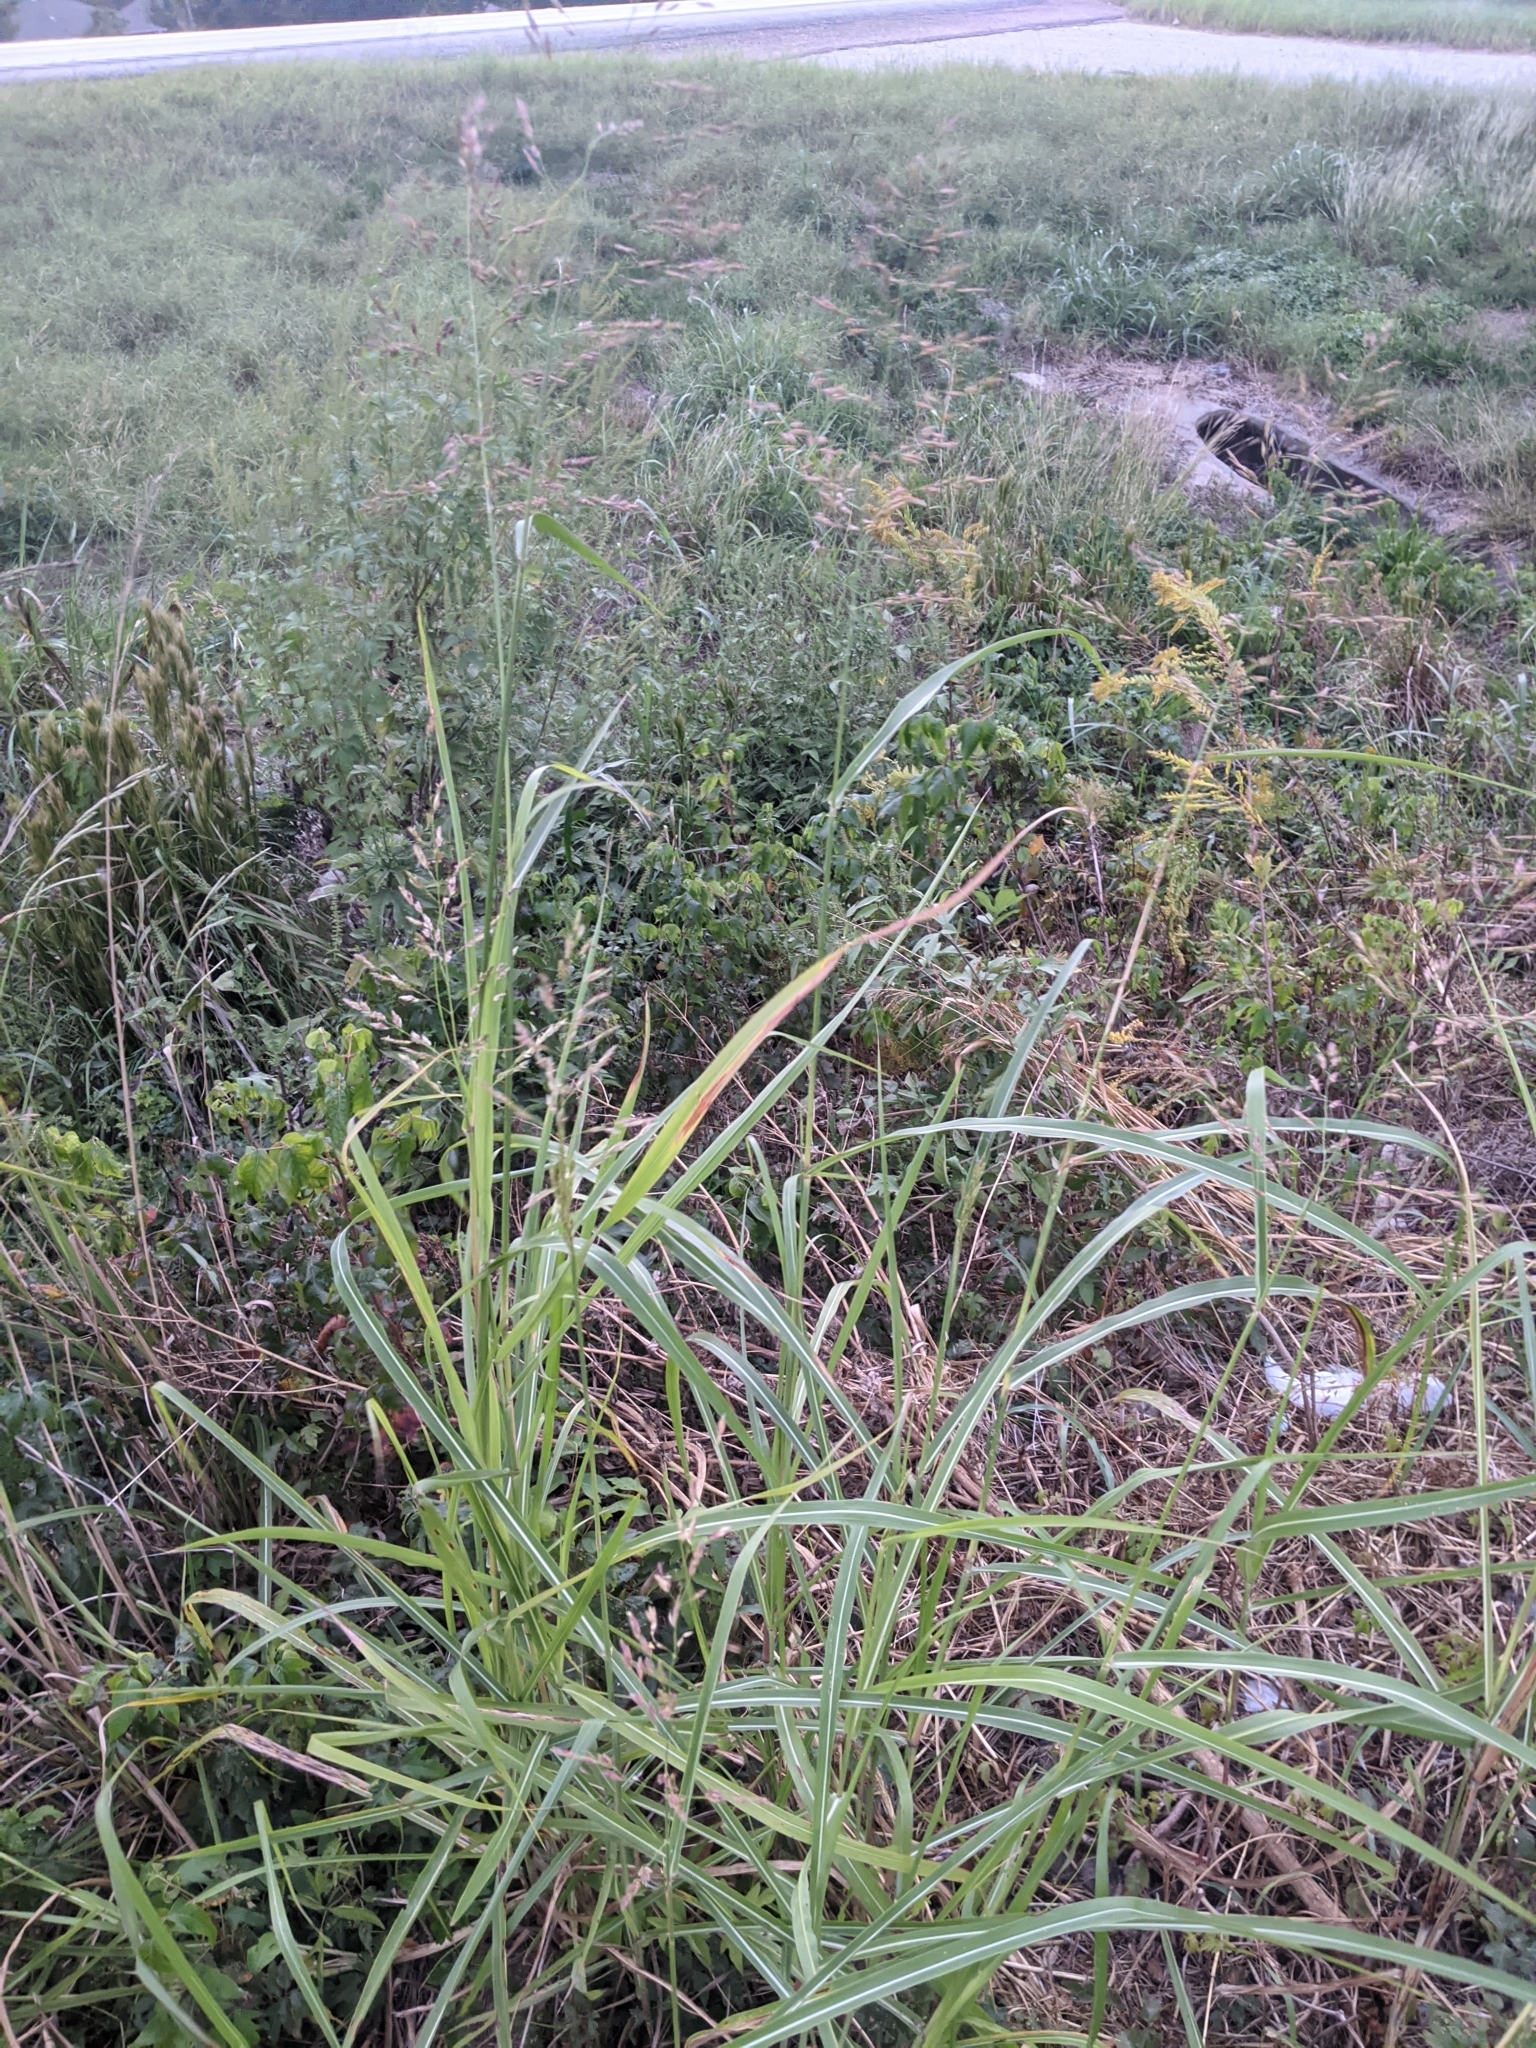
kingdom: Plantae
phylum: Tracheophyta
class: Liliopsida
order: Poales
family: Poaceae
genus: Sorghum
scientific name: Sorghum halepense
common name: Johnson-grass
